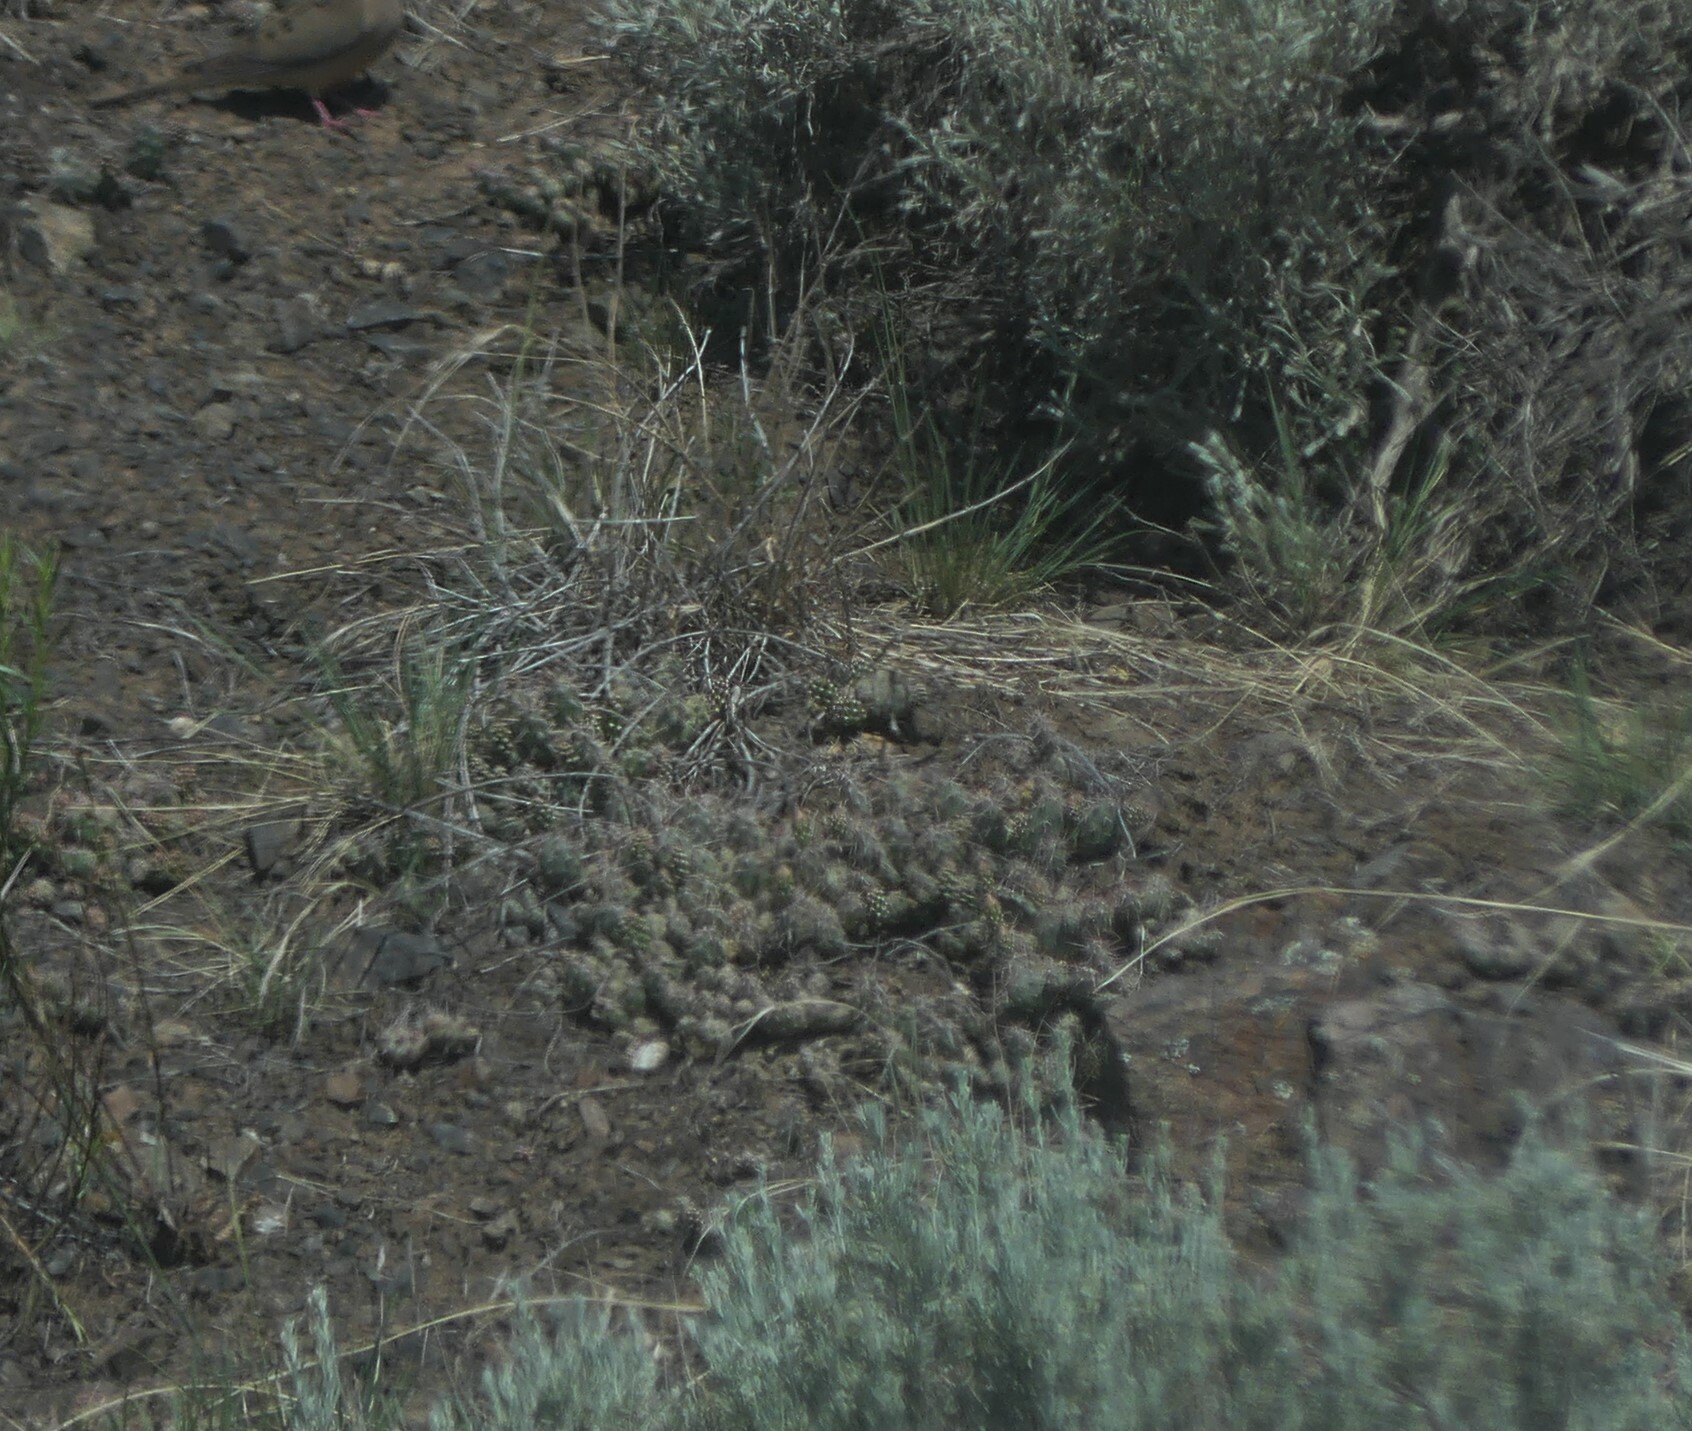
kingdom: Plantae
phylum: Tracheophyta
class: Magnoliopsida
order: Caryophyllales
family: Cactaceae
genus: Opuntia
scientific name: Opuntia fragilis
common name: Brittle cactus
